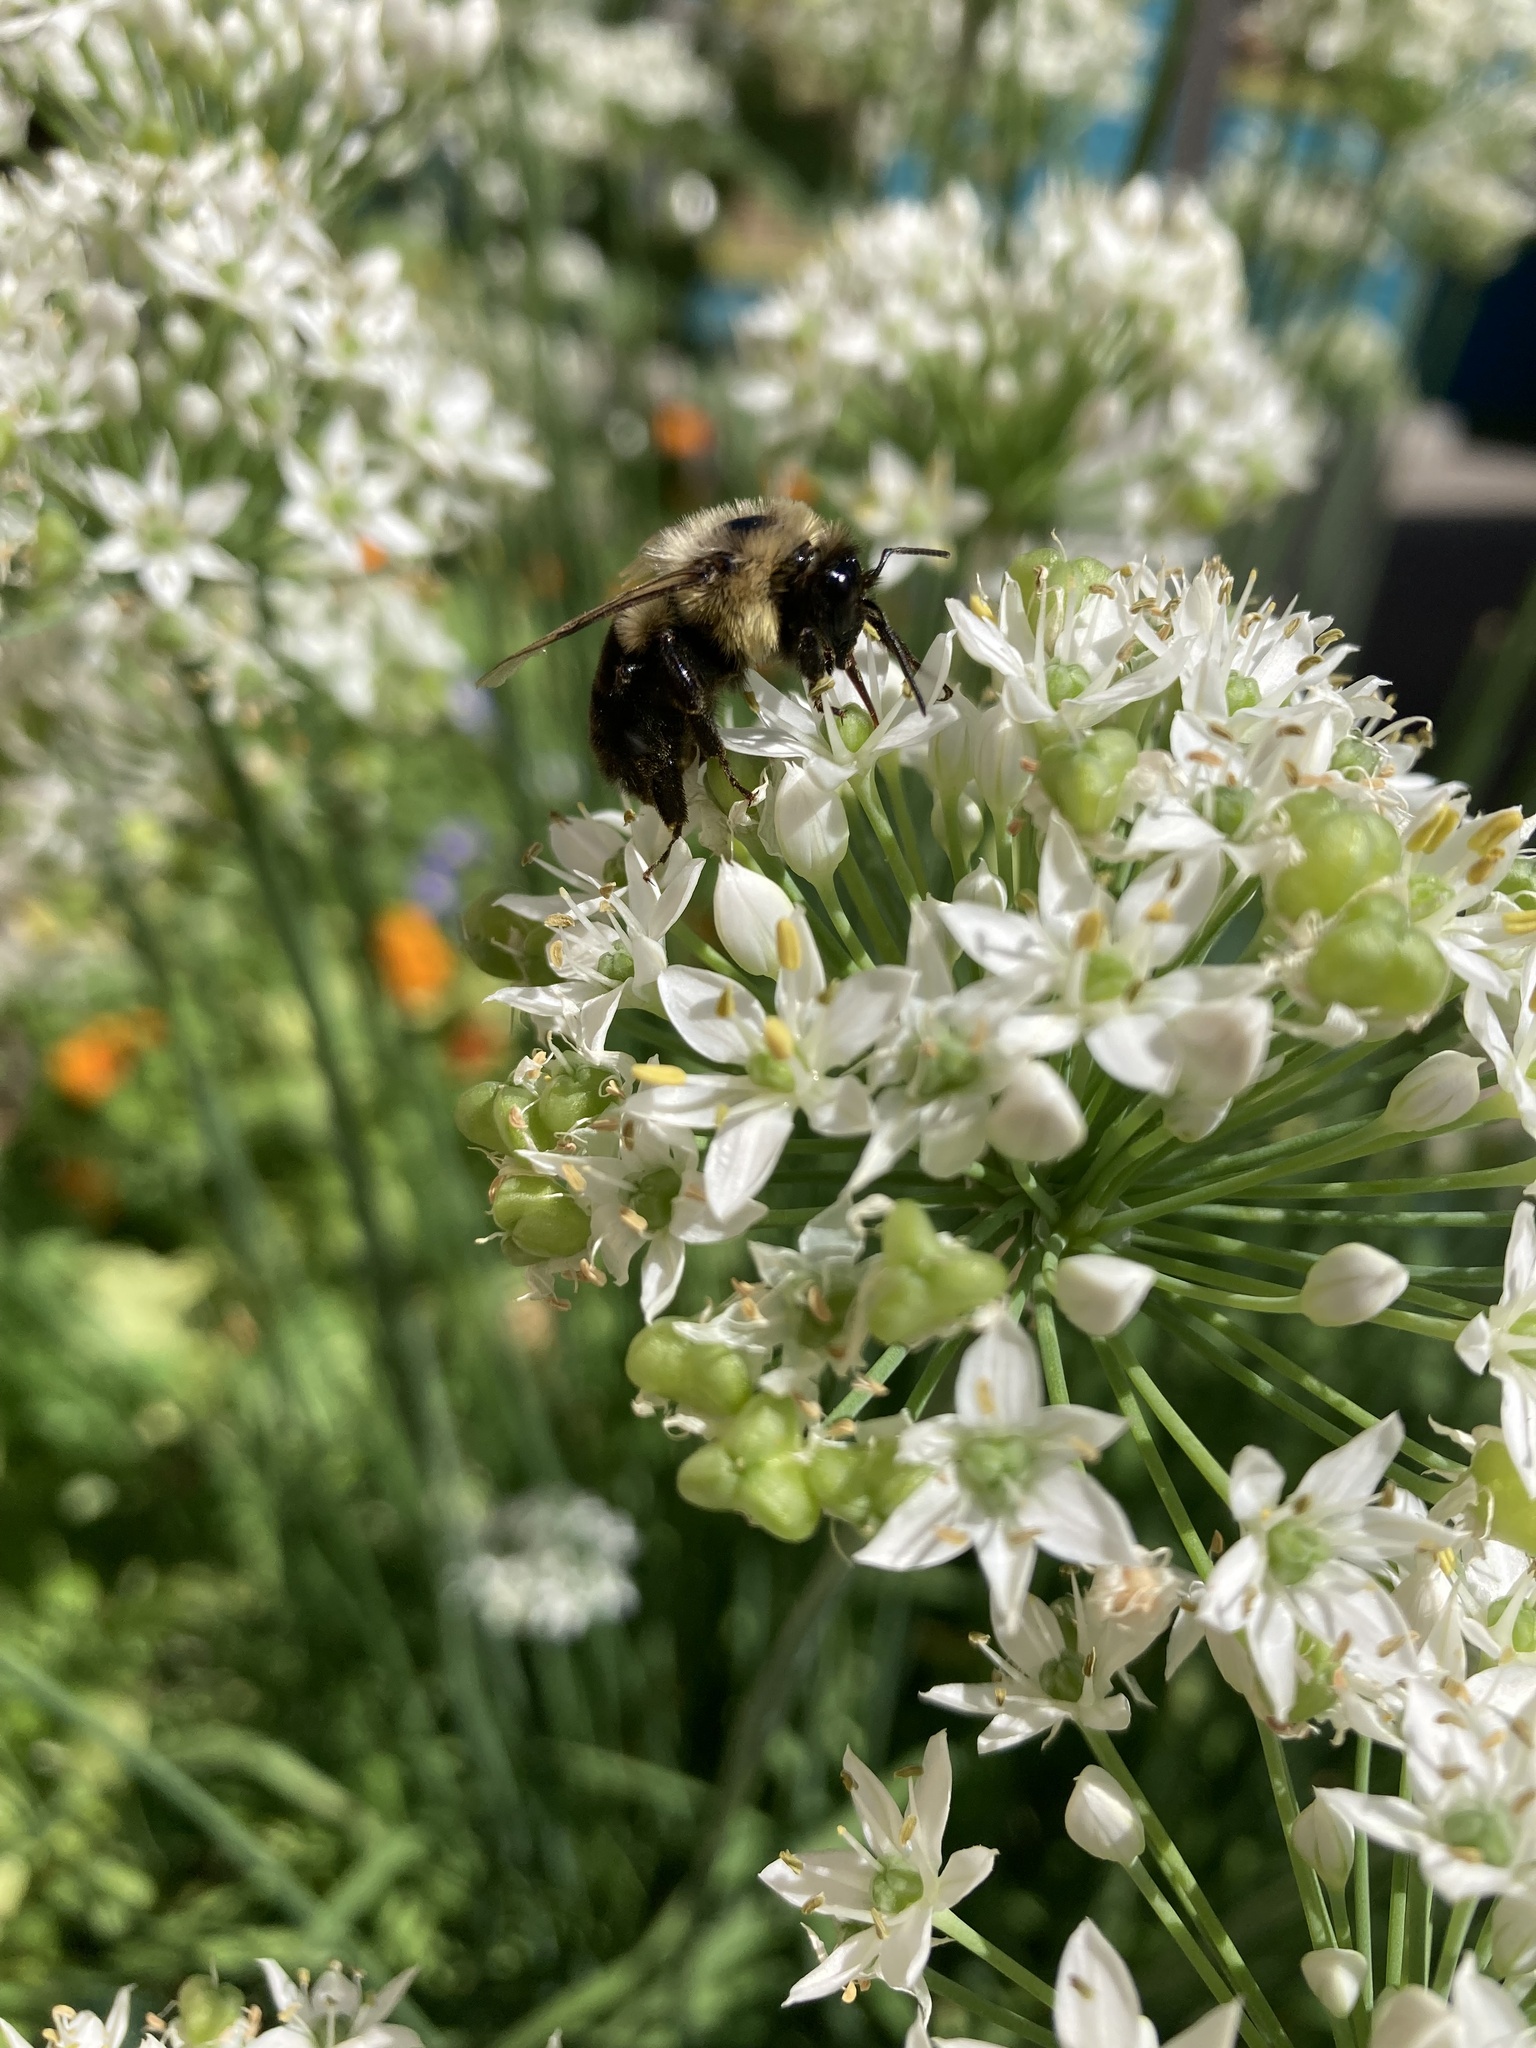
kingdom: Animalia
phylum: Arthropoda
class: Insecta
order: Hymenoptera
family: Apidae
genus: Bombus
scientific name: Bombus impatiens
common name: Common eastern bumble bee
